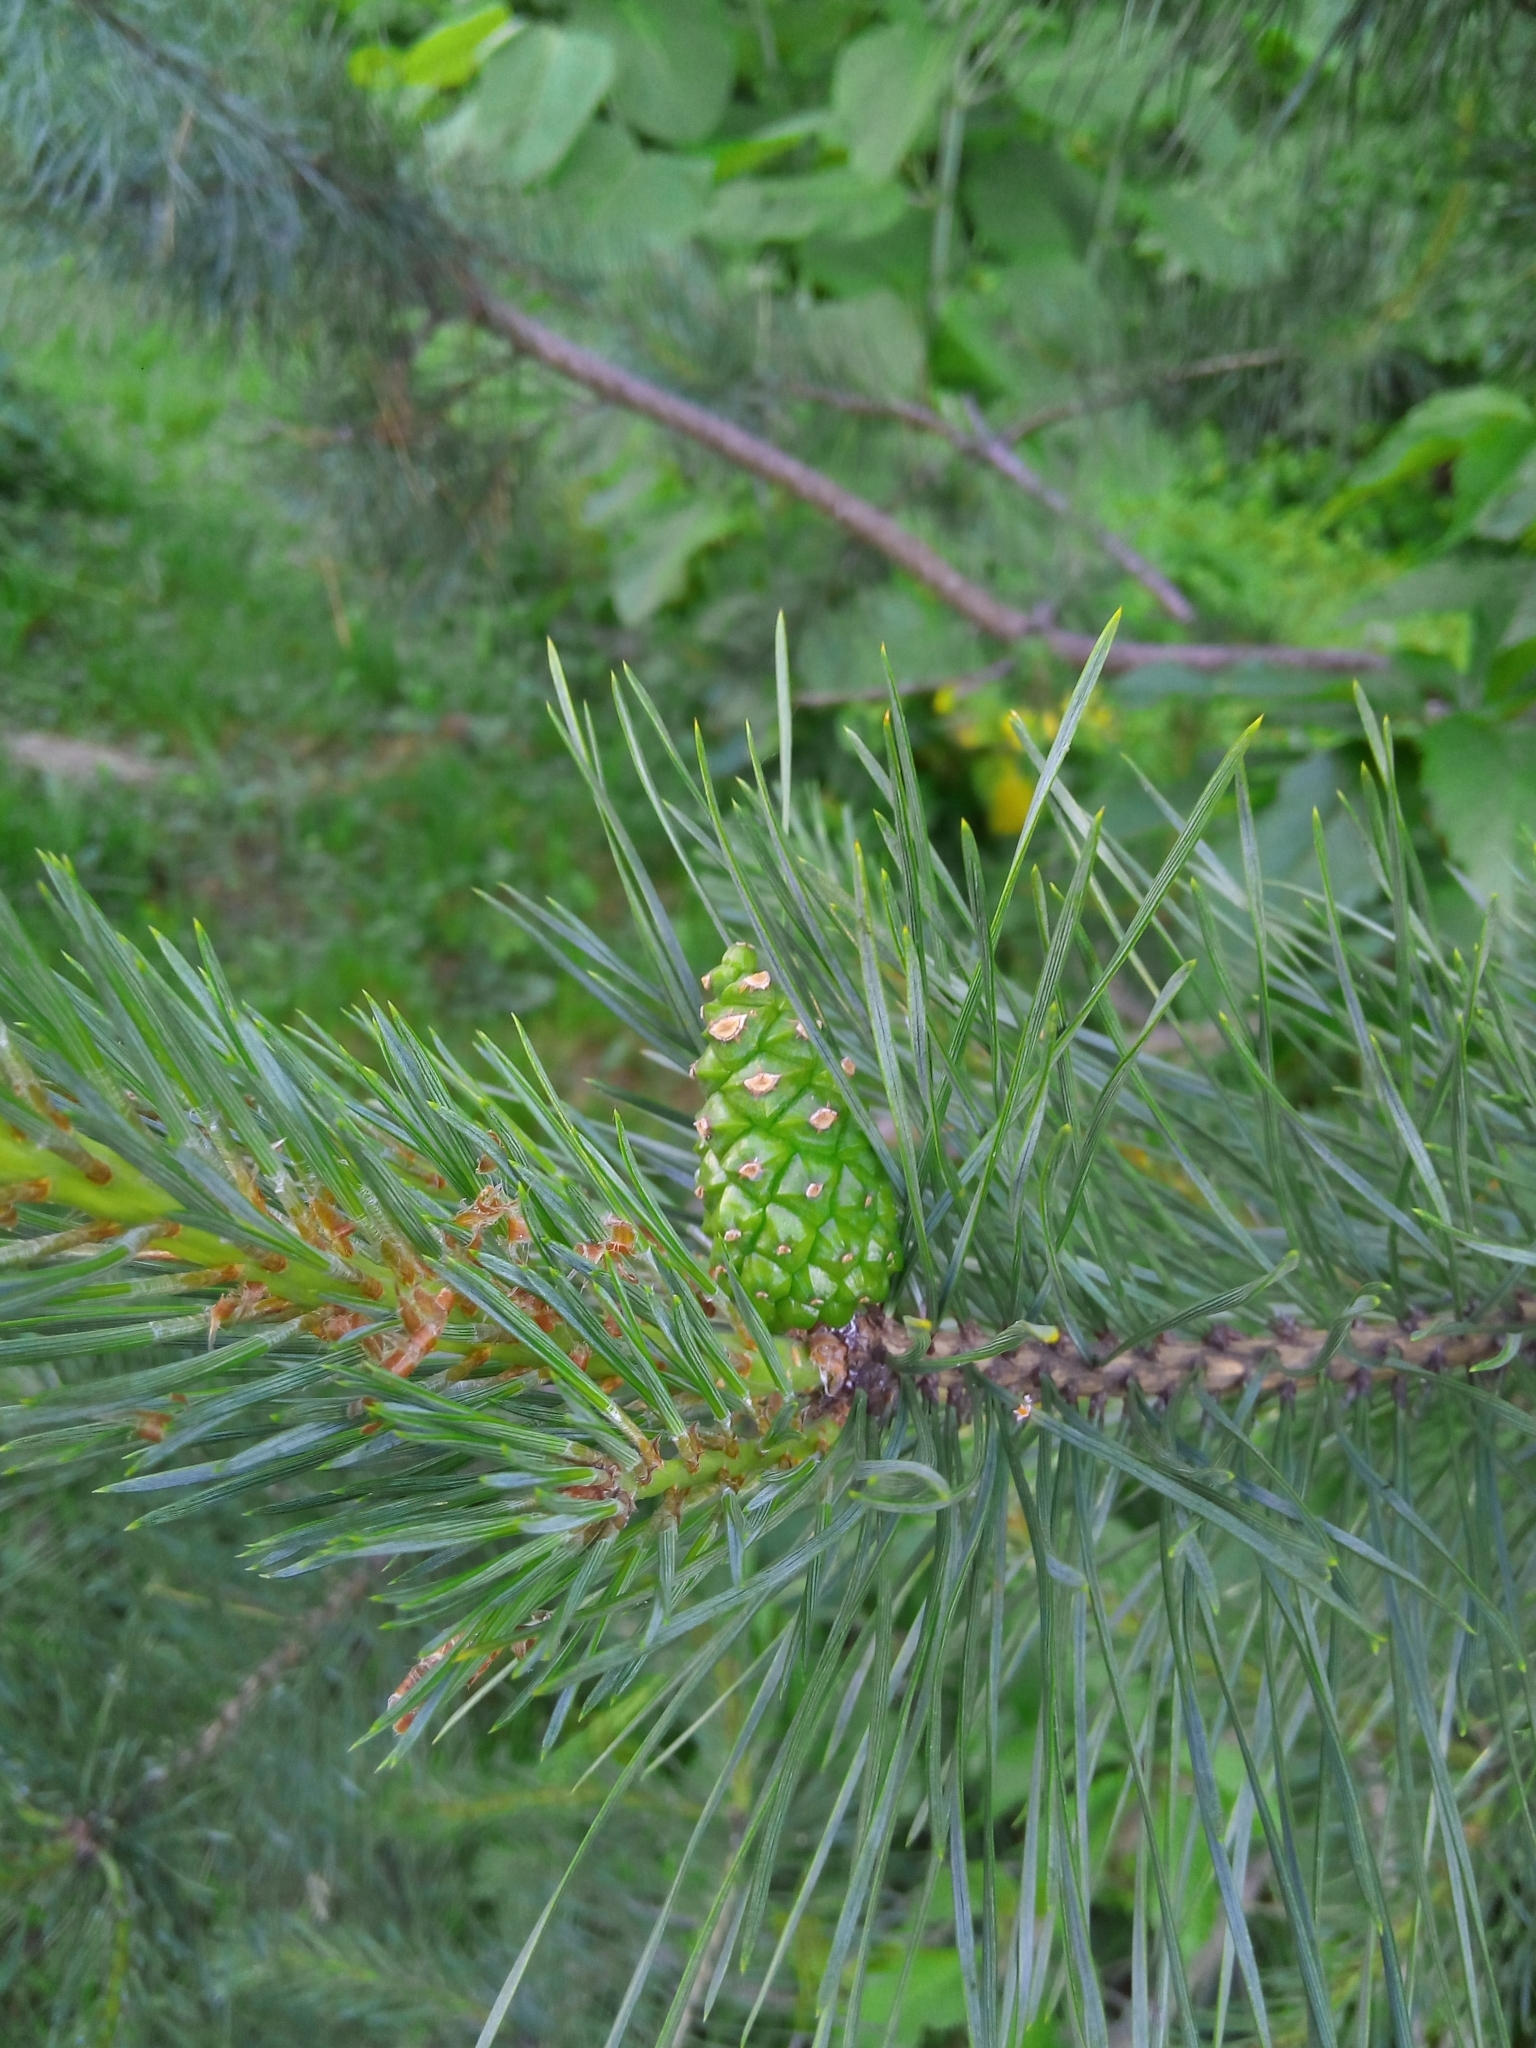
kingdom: Plantae
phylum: Tracheophyta
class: Pinopsida
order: Pinales
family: Pinaceae
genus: Pinus
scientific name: Pinus sylvestris
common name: Scots pine
